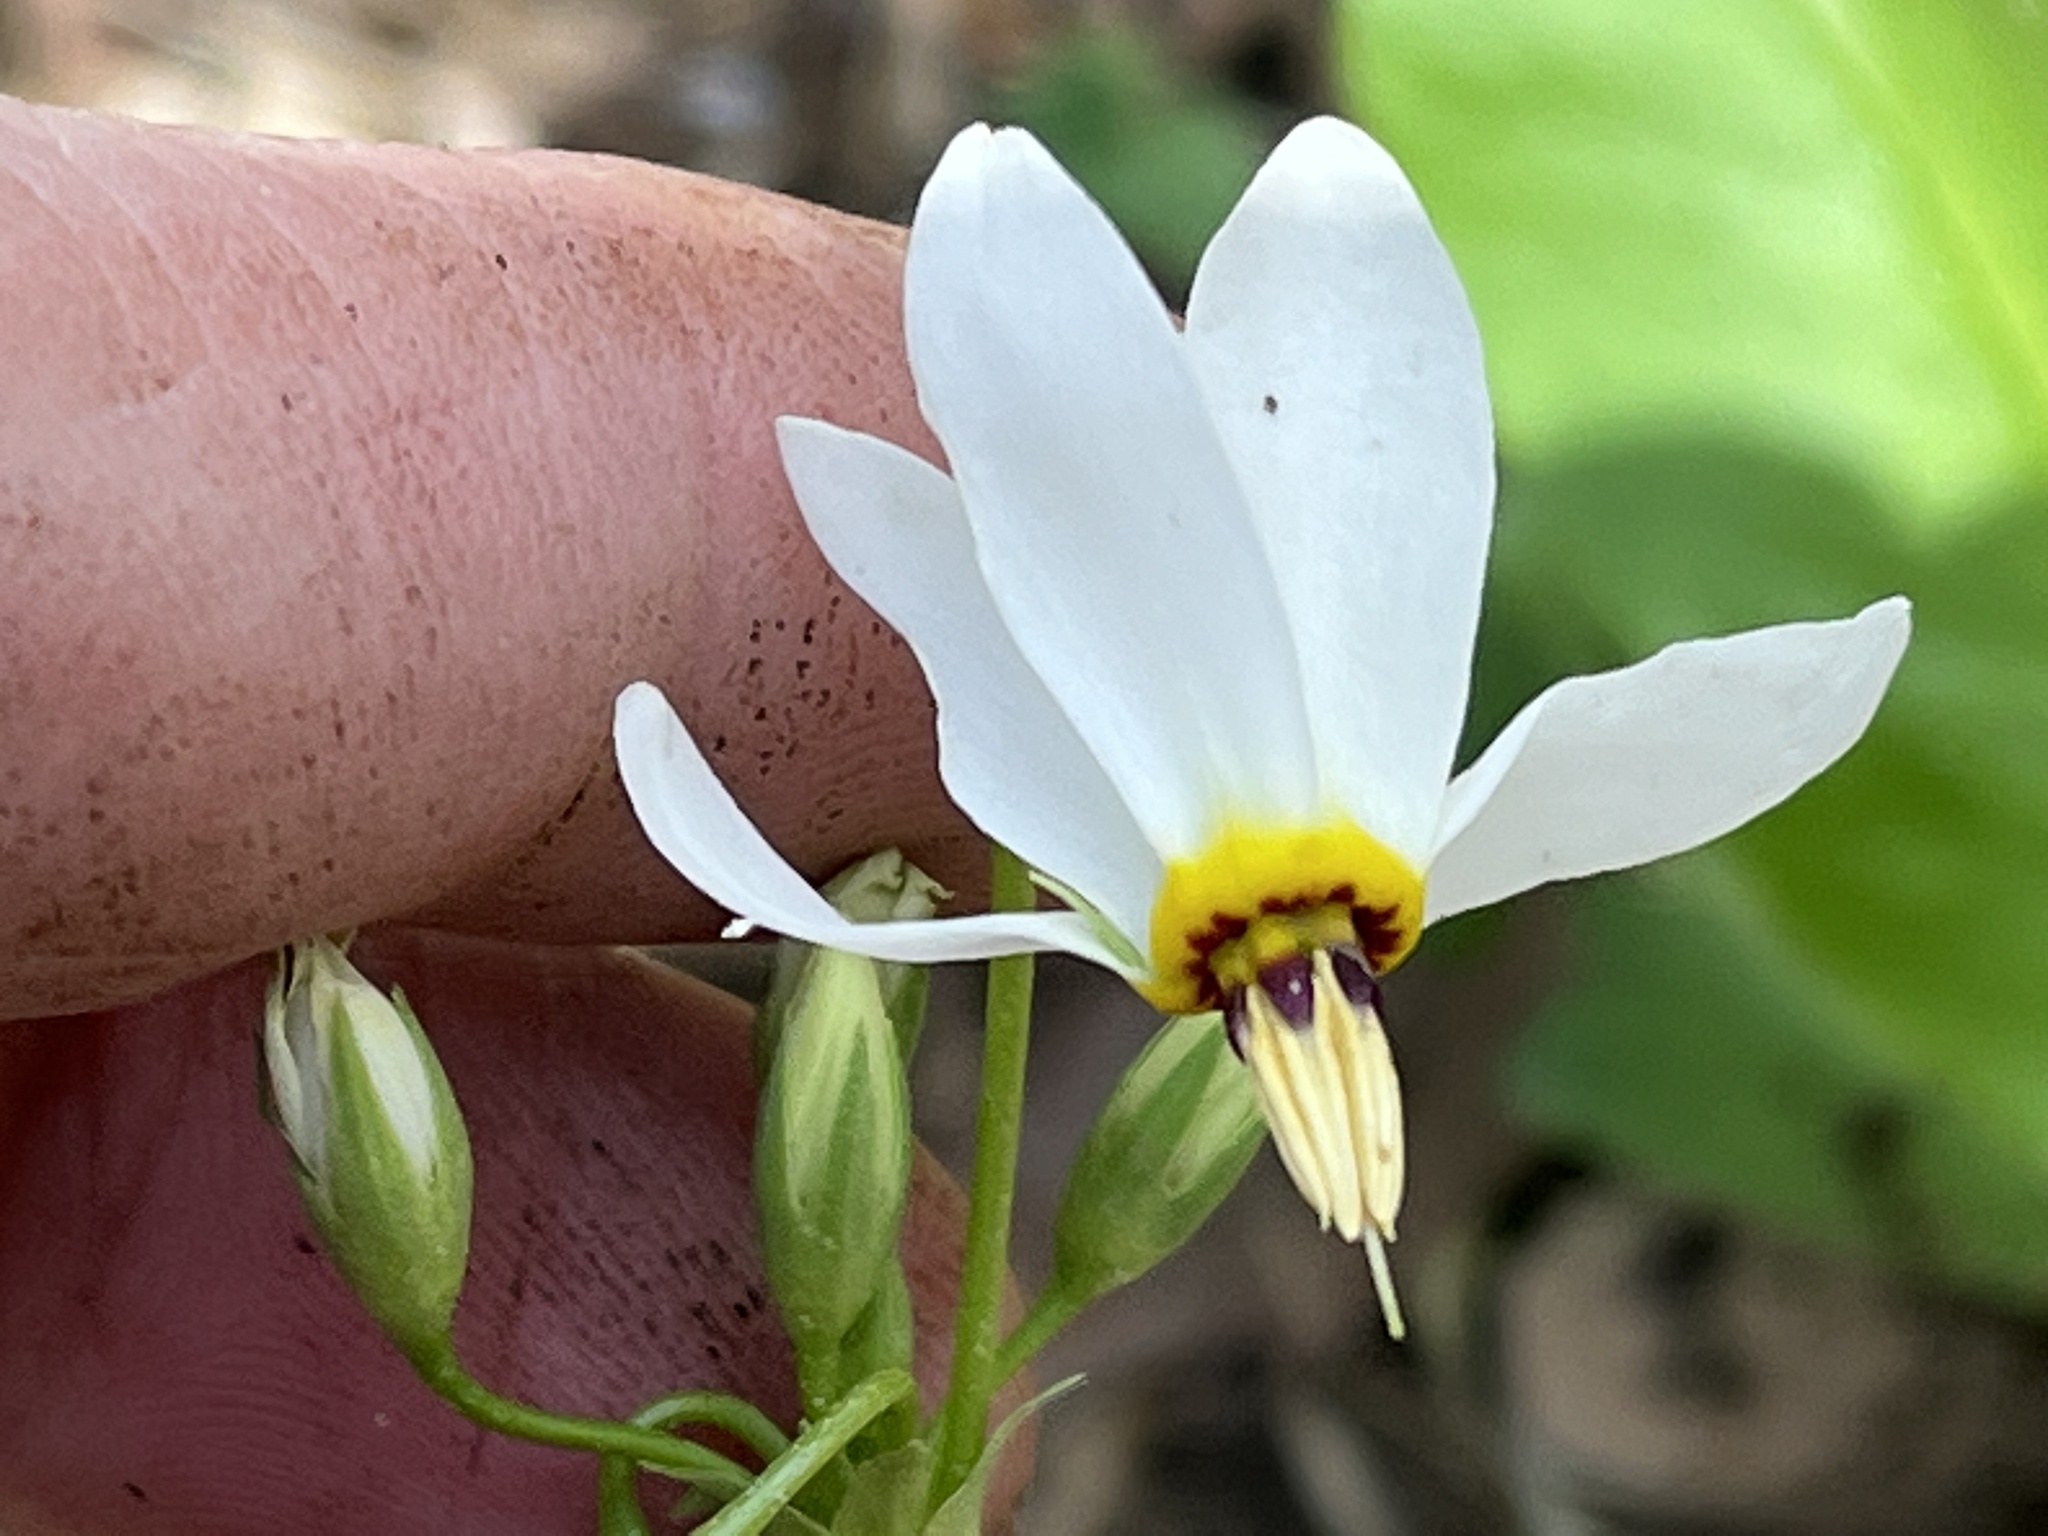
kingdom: Plantae
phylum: Tracheophyta
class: Magnoliopsida
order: Ericales
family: Primulaceae
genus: Dodecatheon
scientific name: Dodecatheon meadia
